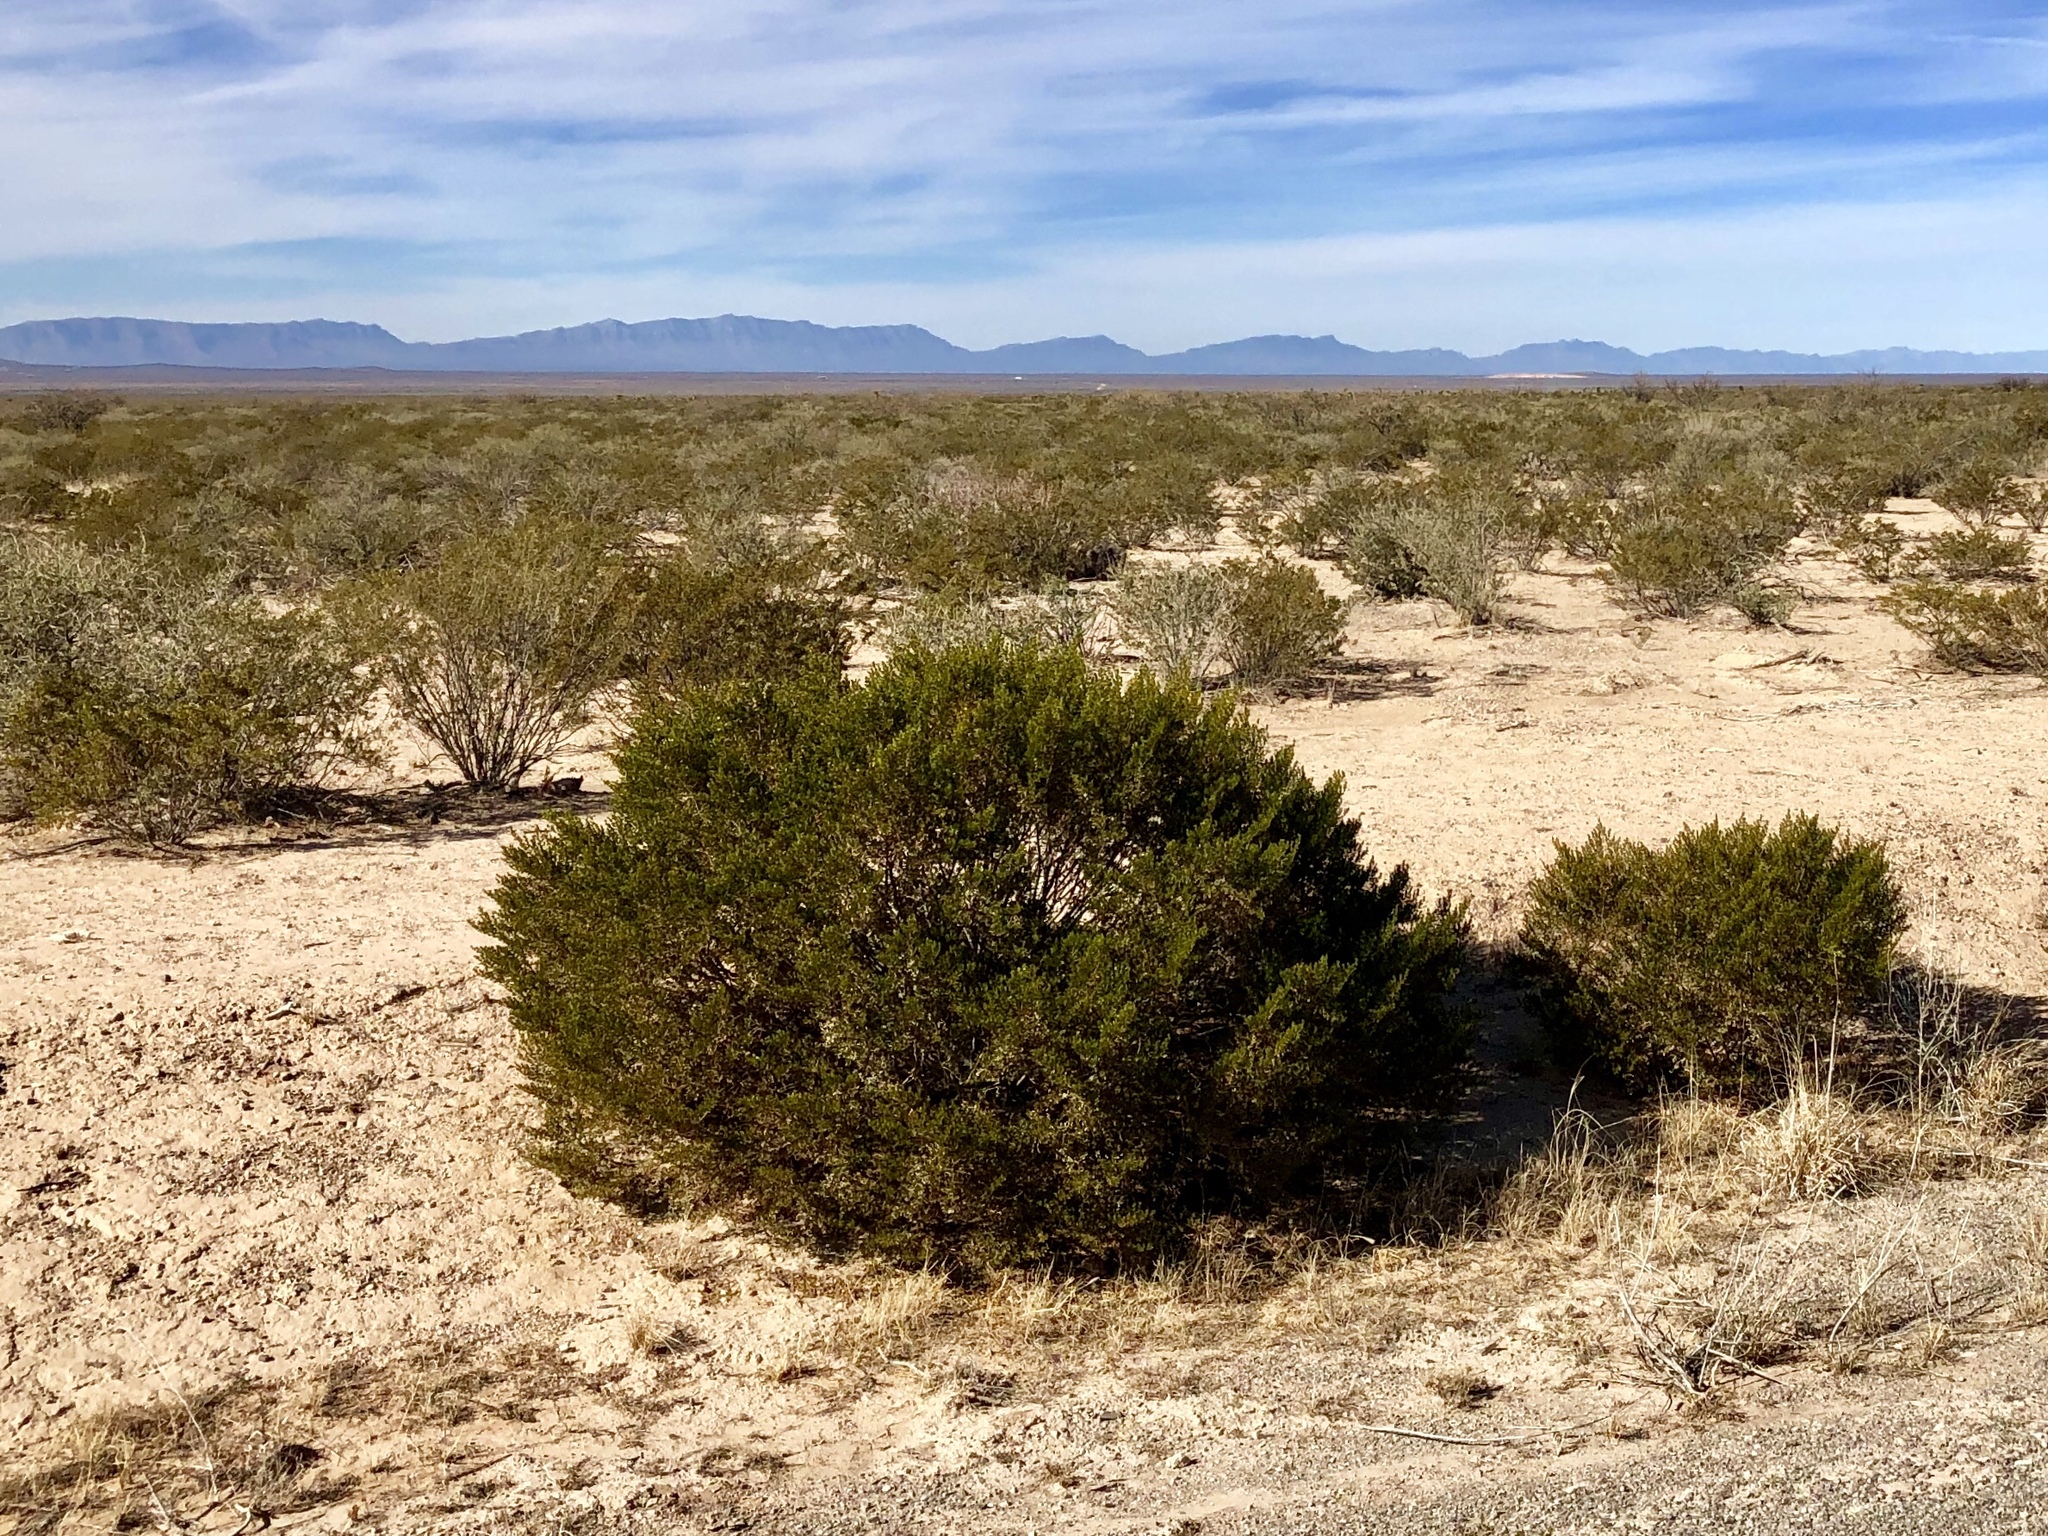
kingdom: Plantae
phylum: Tracheophyta
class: Magnoliopsida
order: Zygophyllales
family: Zygophyllaceae
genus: Larrea
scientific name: Larrea tridentata
